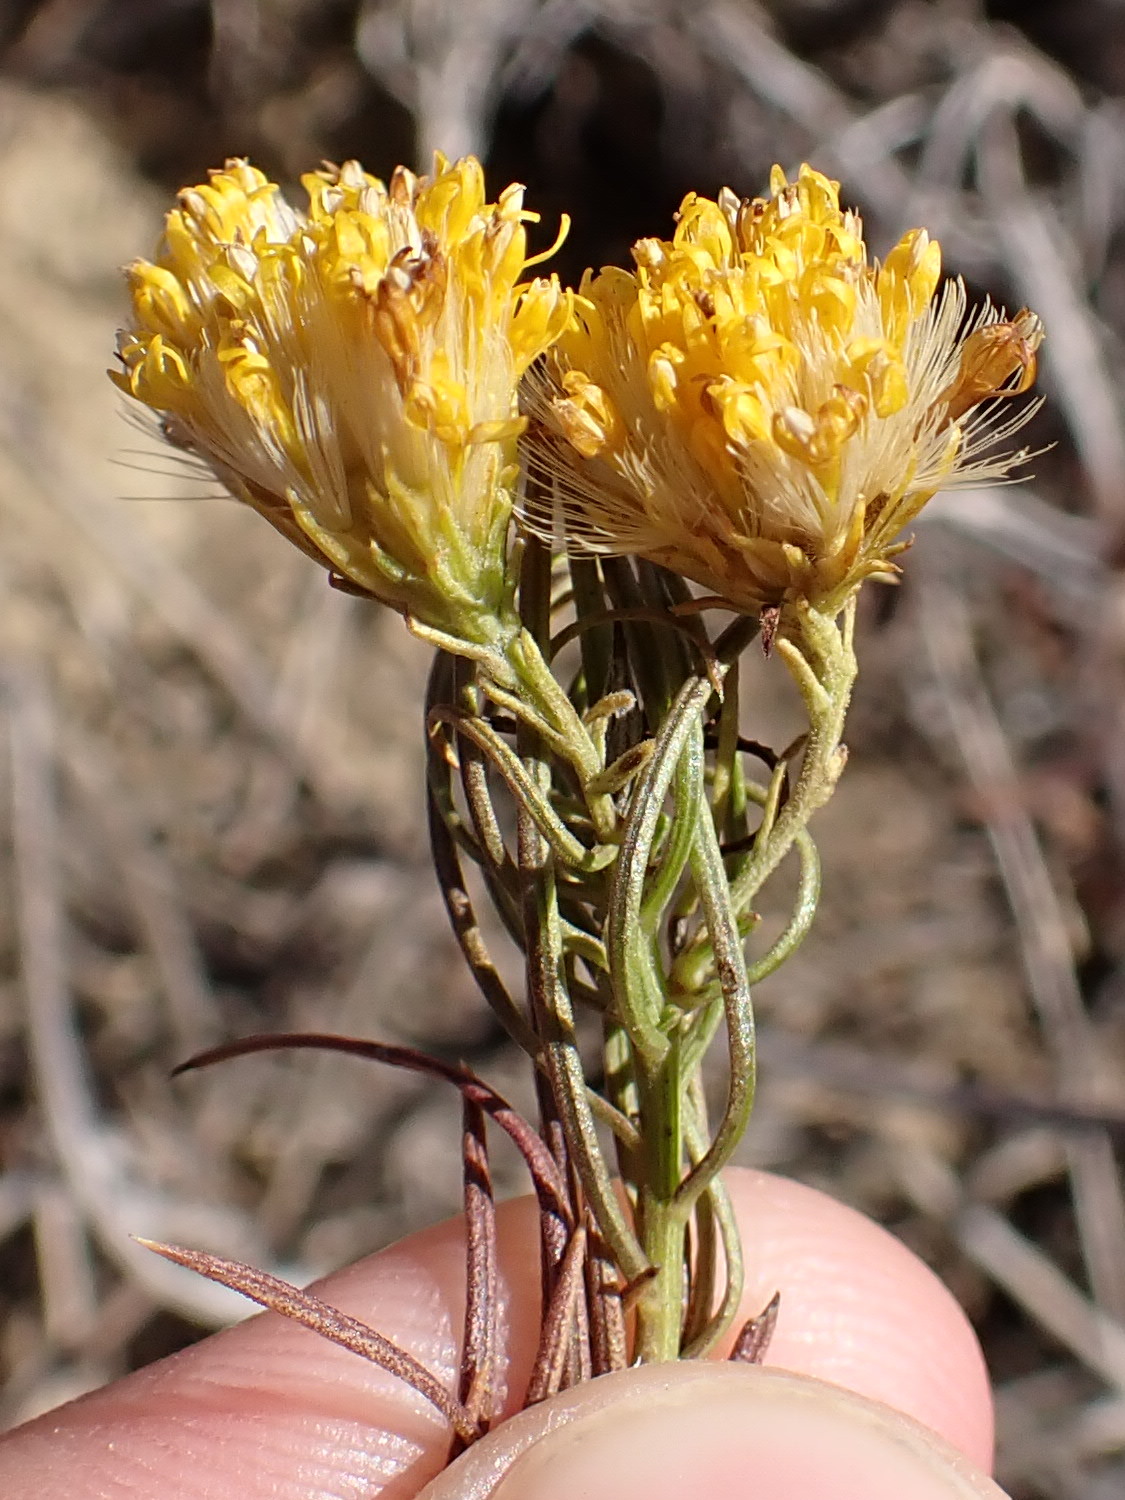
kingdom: Plantae
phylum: Tracheophyta
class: Magnoliopsida
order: Asterales
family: Asteraceae
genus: Galatella
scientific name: Galatella linosyris
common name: Goldilocks aster
